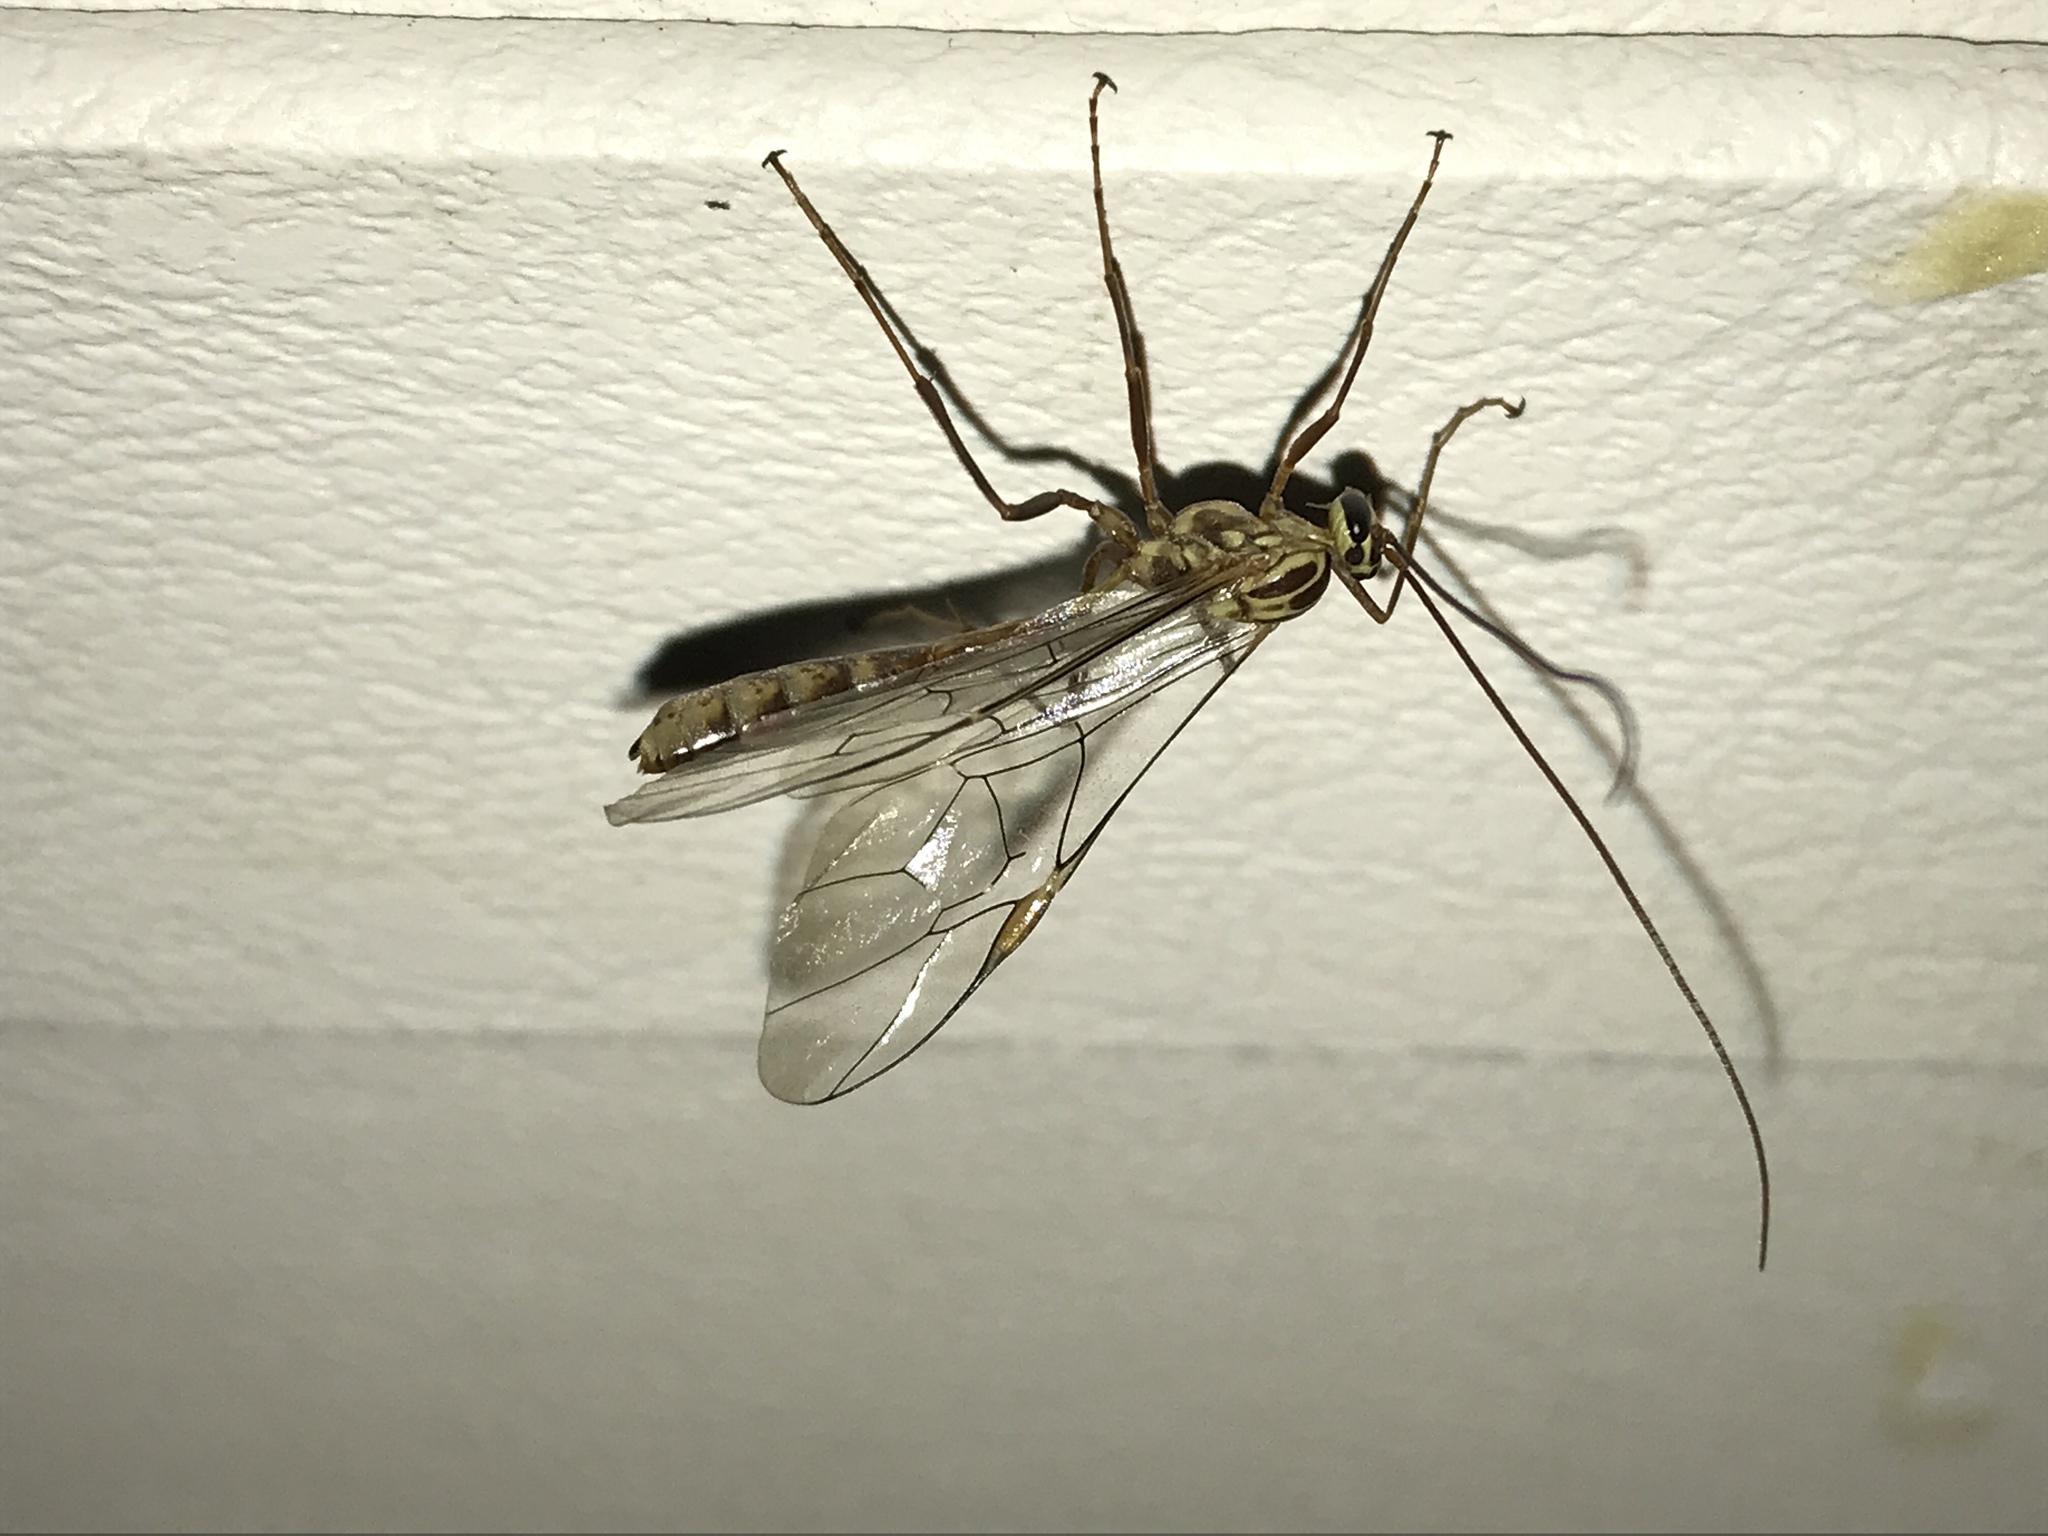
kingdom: Animalia
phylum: Arthropoda
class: Insecta
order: Hymenoptera
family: Ichneumonidae
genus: Ophion
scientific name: Ophion
